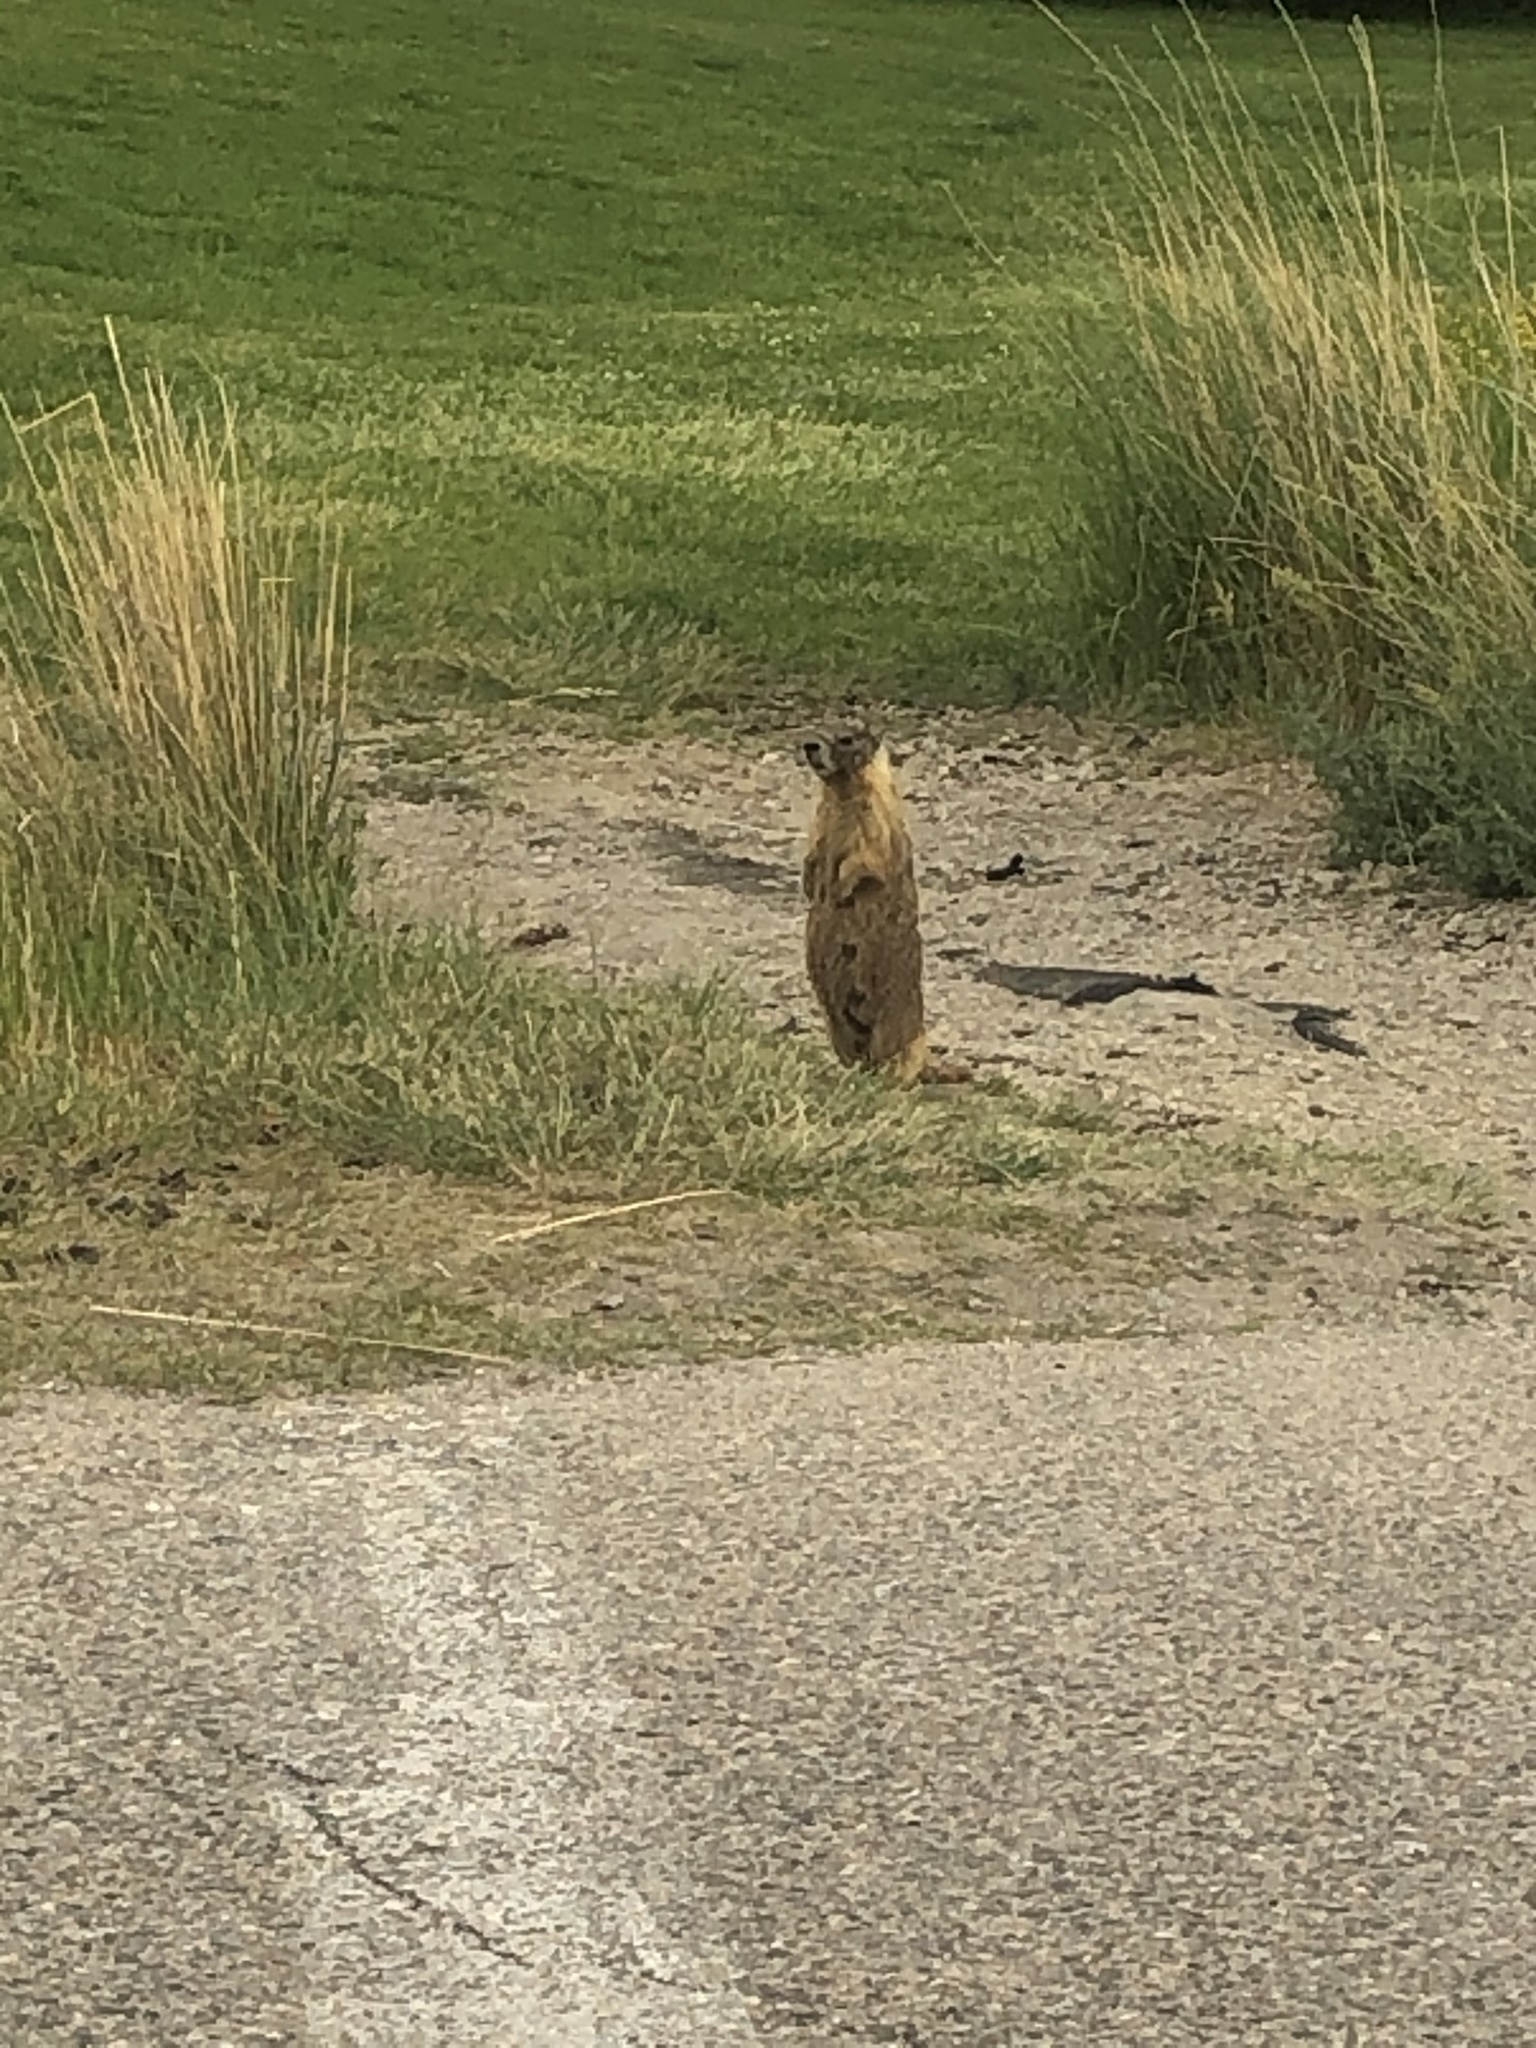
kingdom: Animalia
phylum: Chordata
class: Mammalia
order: Rodentia
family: Sciuridae
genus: Marmota
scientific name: Marmota flaviventris
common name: Yellow-bellied marmot
